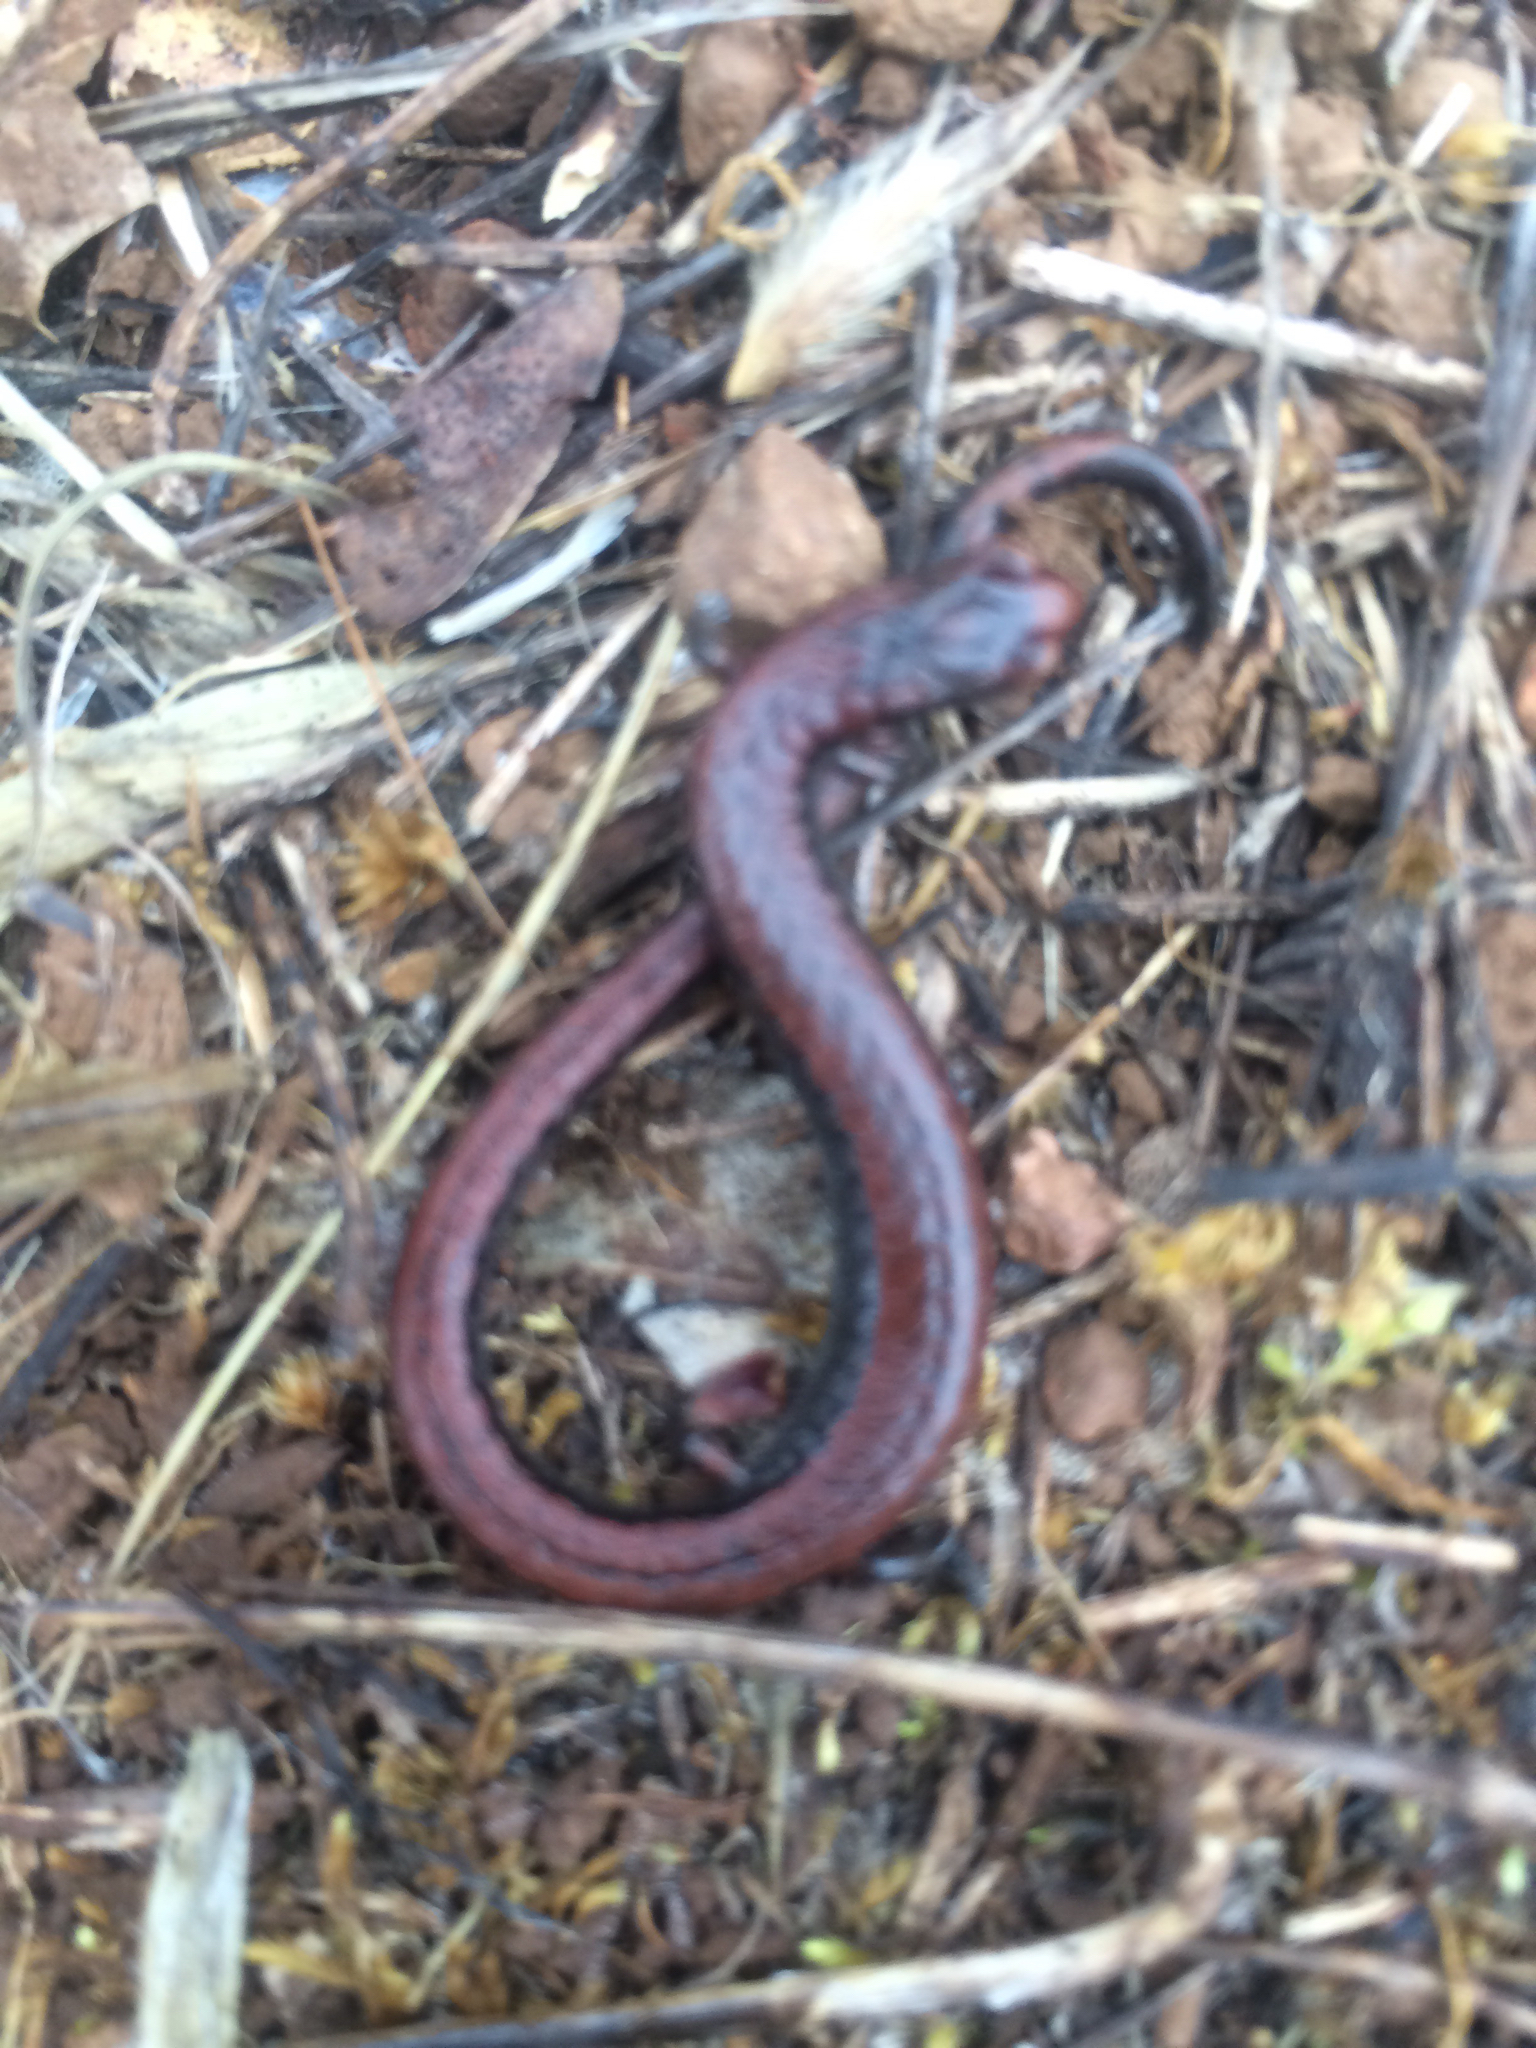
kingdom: Animalia
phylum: Chordata
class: Amphibia
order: Caudata
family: Plethodontidae
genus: Batrachoseps
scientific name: Batrachoseps attenuatus
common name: California slender salamander
